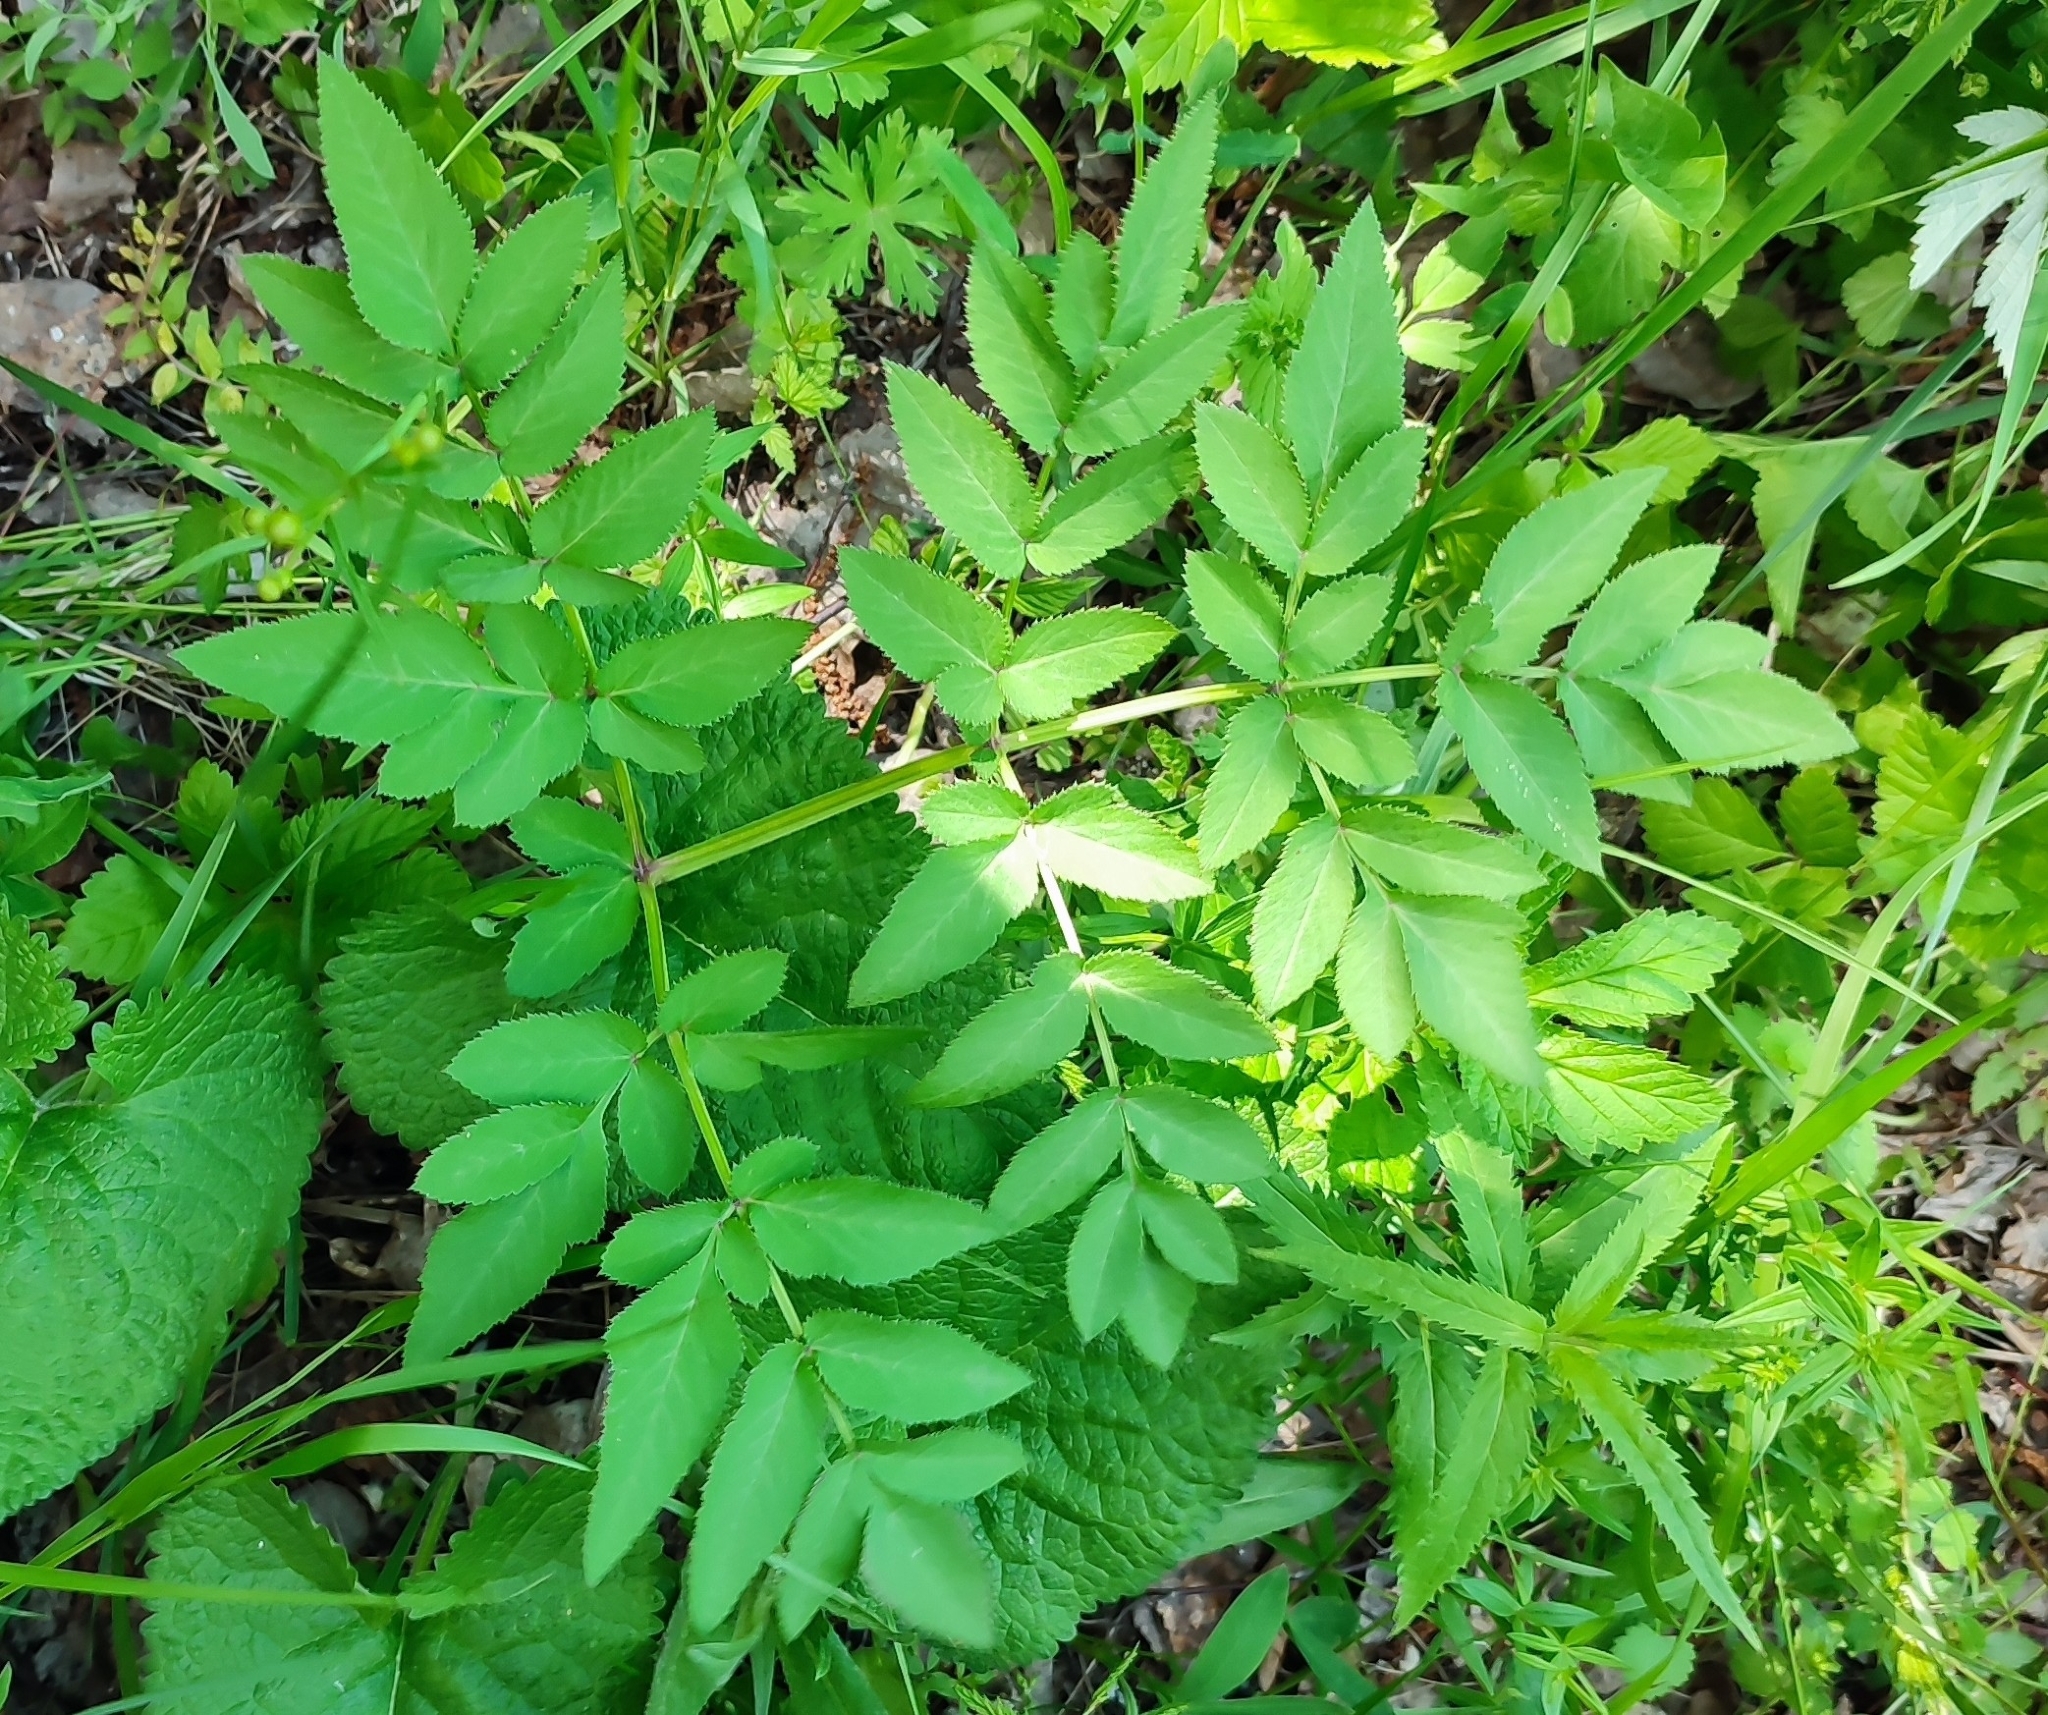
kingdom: Plantae
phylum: Tracheophyta
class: Magnoliopsida
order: Apiales
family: Apiaceae
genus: Angelica
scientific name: Angelica sylvestris
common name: Wild angelica
